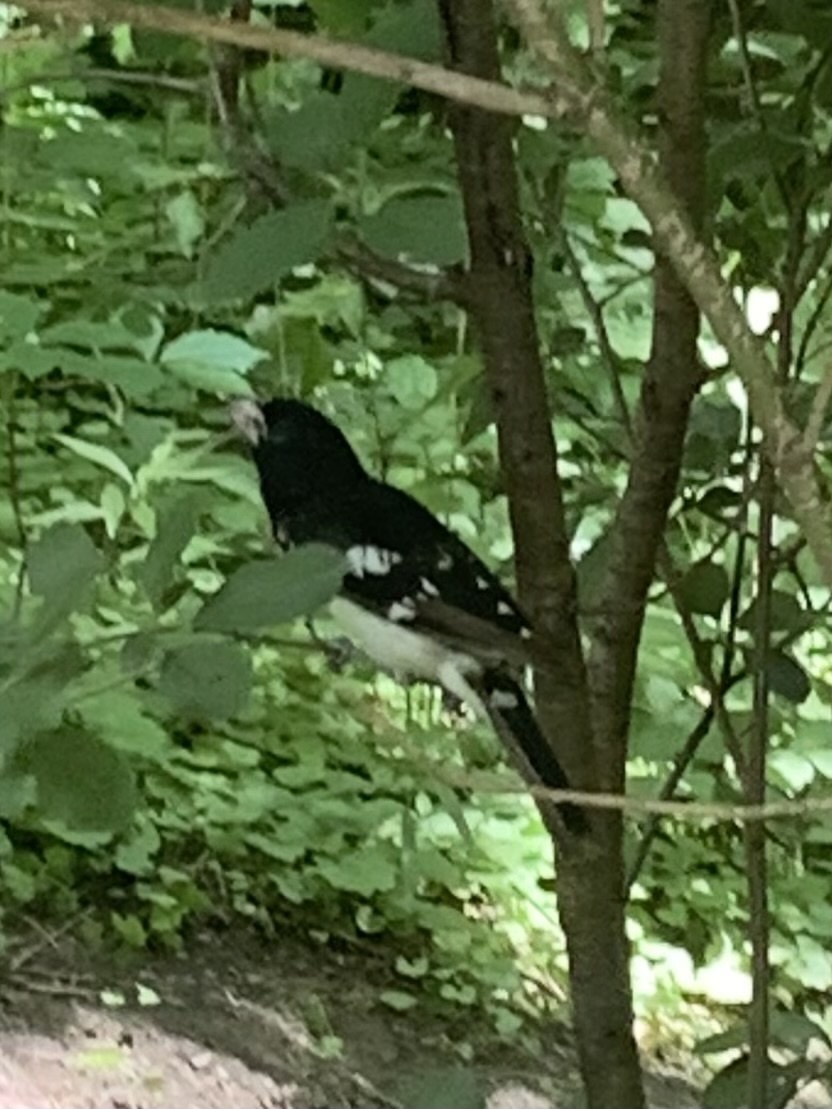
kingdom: Animalia
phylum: Chordata
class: Aves
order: Passeriformes
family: Cardinalidae
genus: Pheucticus
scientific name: Pheucticus ludovicianus
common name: Rose-breasted grosbeak
